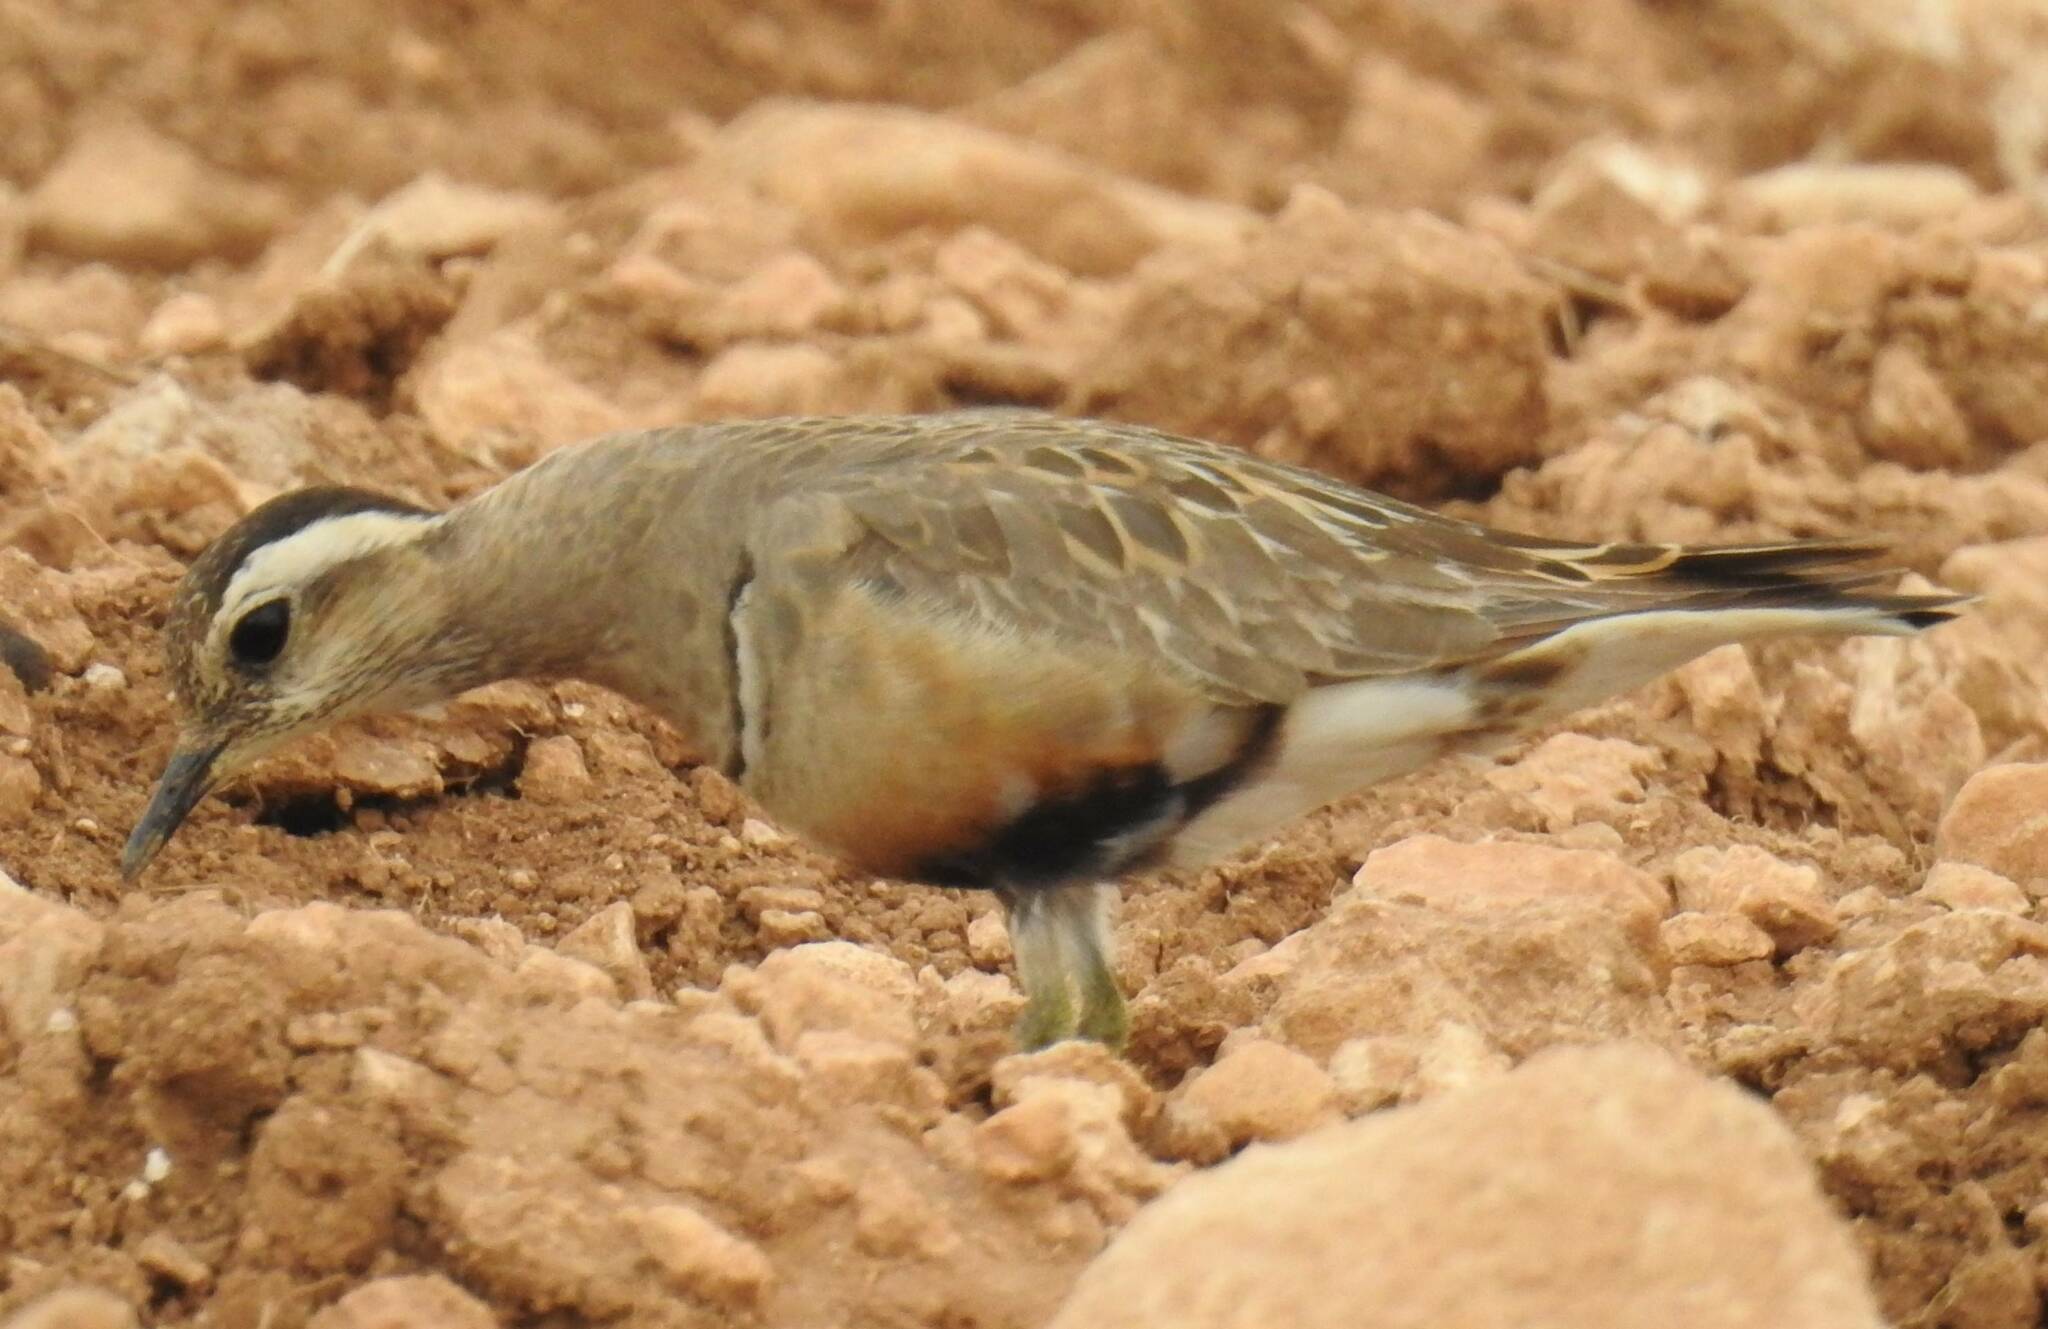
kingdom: Animalia
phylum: Chordata
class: Aves
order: Charadriiformes
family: Charadriidae
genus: Charadrius
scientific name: Charadrius morinellus
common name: Eurasian dotterel
